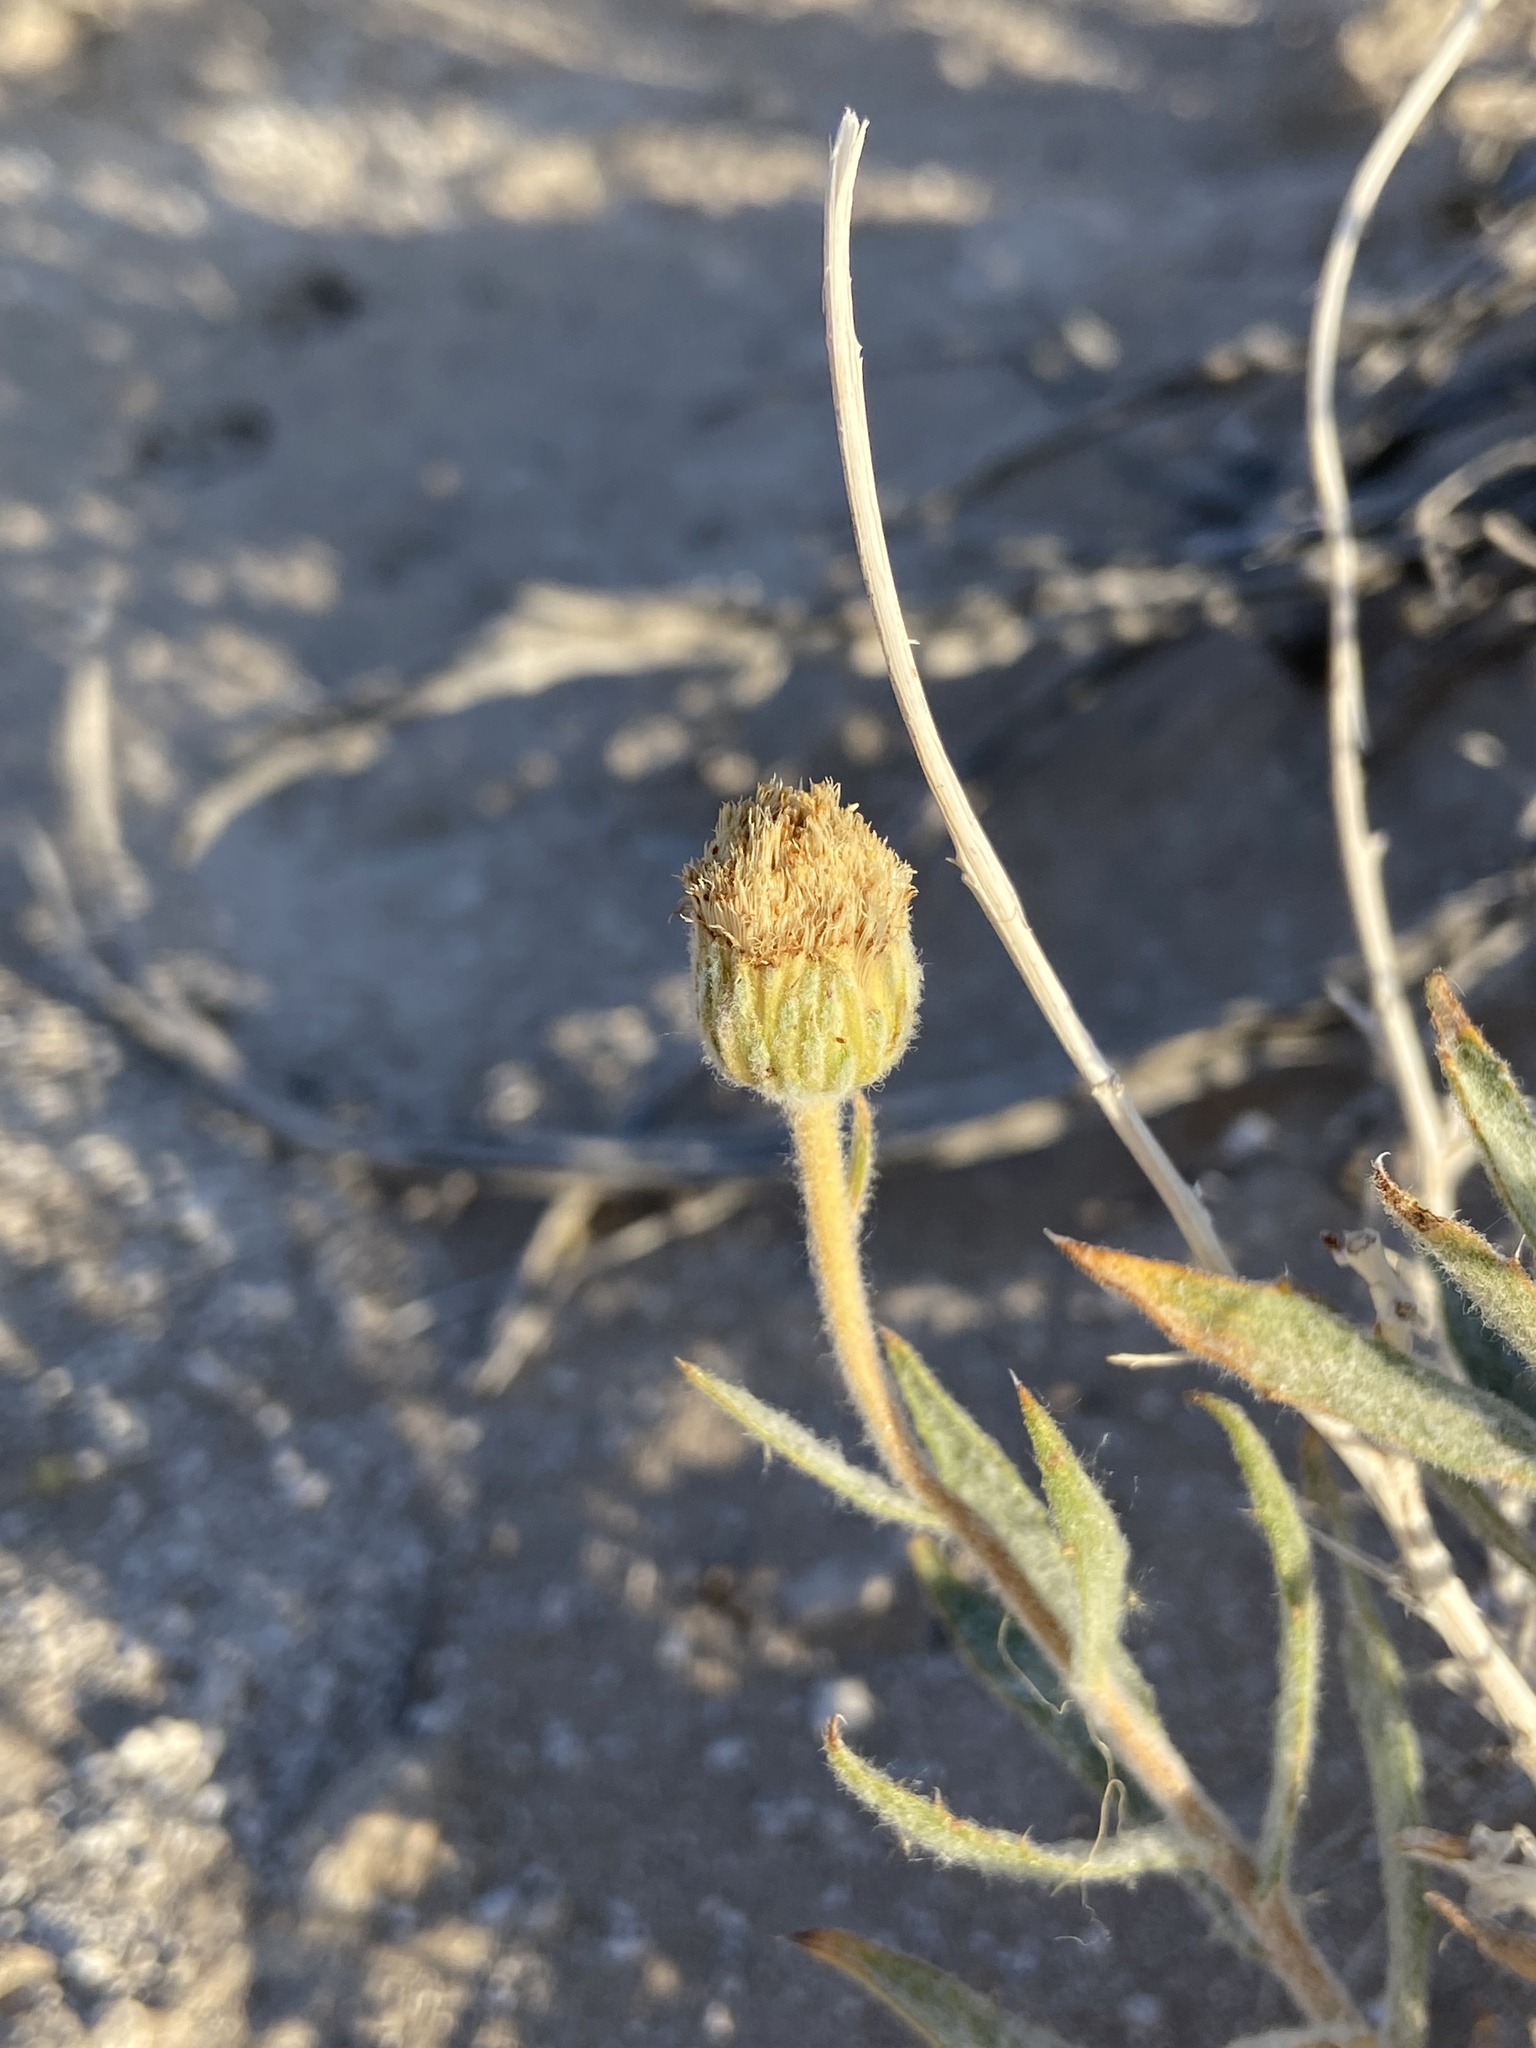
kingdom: Plantae
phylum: Tracheophyta
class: Magnoliopsida
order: Asterales
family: Asteraceae
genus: Xylorhiza
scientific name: Xylorhiza tortifolia
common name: Hurt-leaf woody-aster
